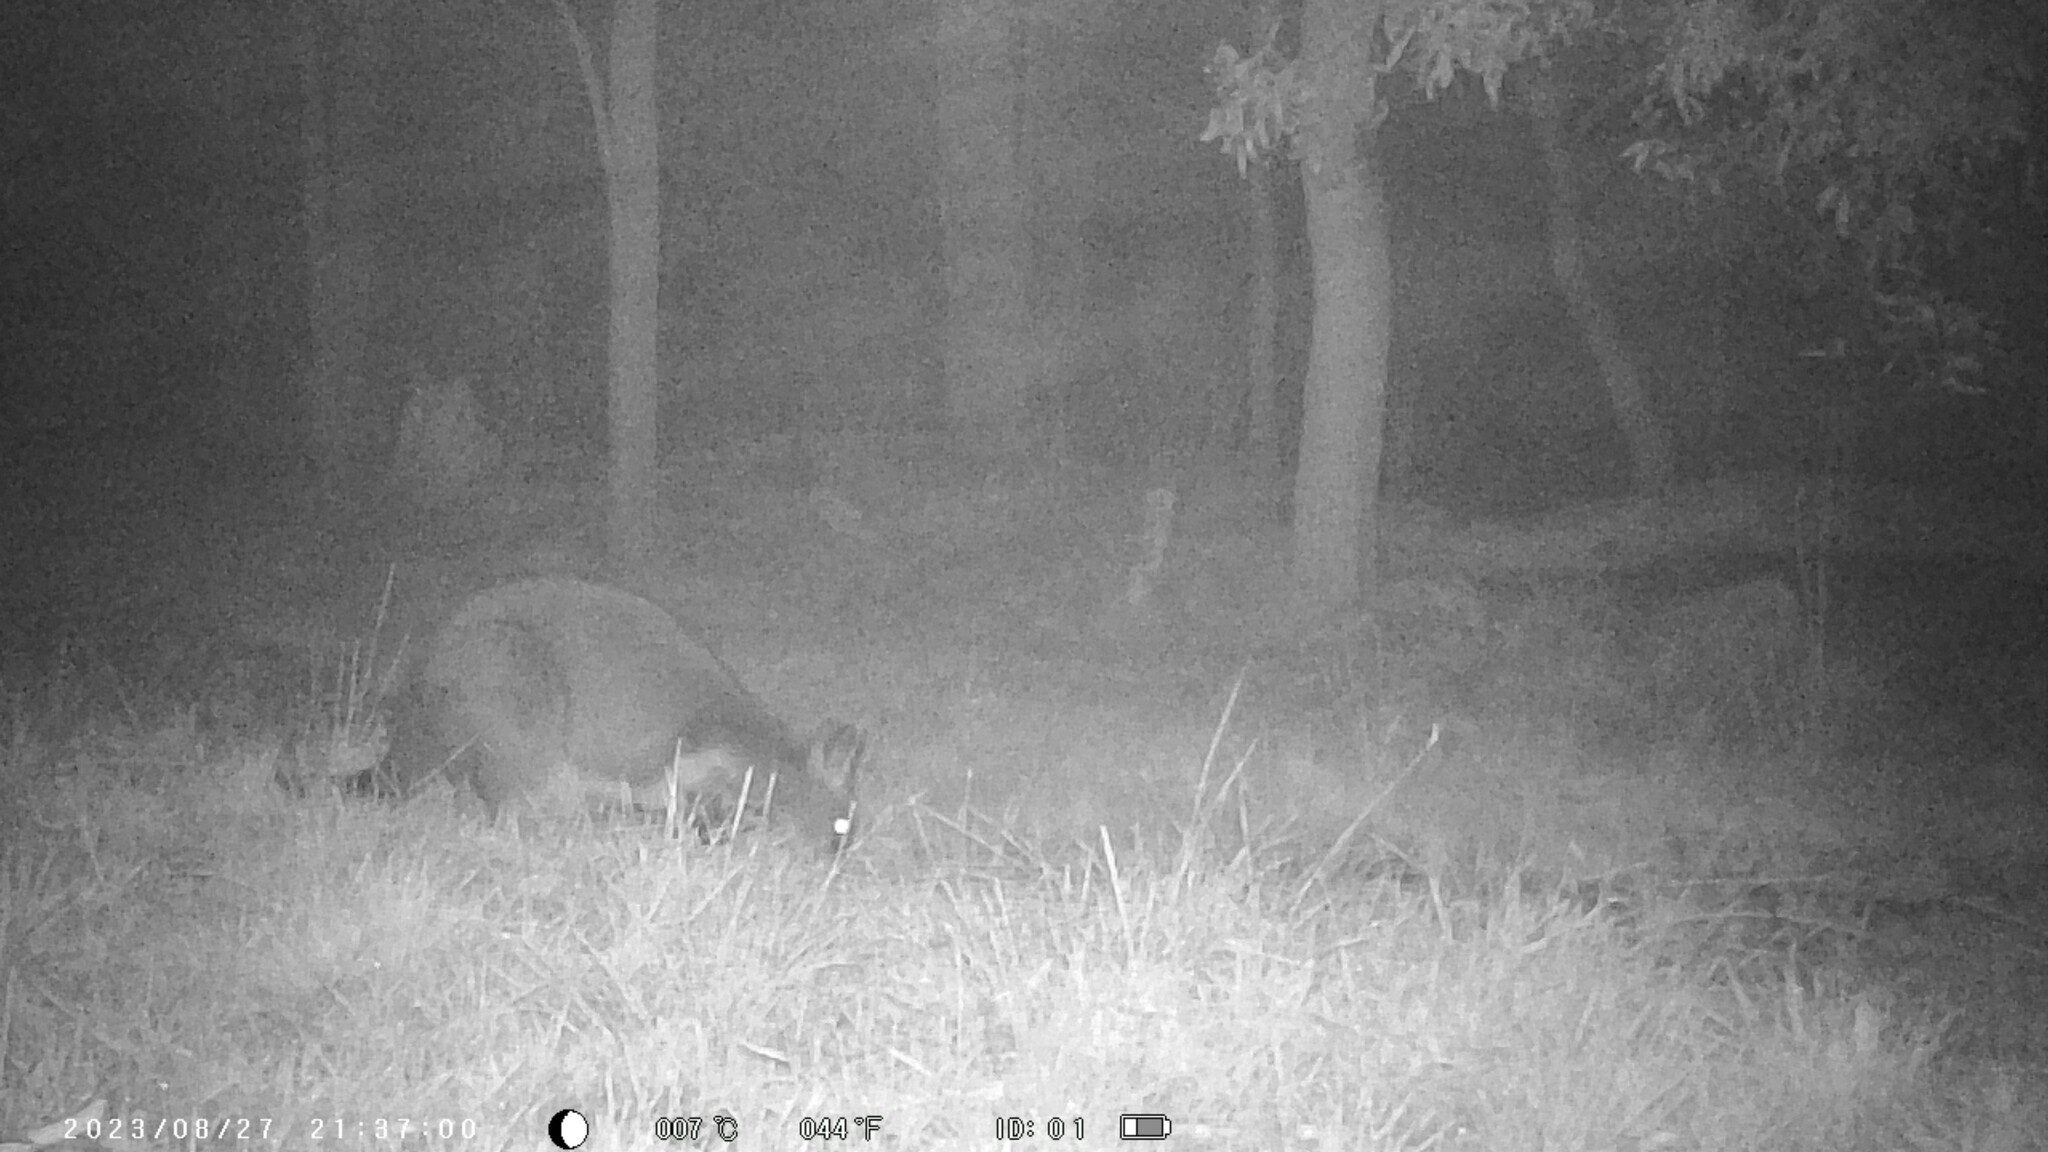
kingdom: Animalia
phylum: Chordata
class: Mammalia
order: Diprotodontia
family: Macropodidae
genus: Wallabia
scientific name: Wallabia bicolor
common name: Swamp wallaby
